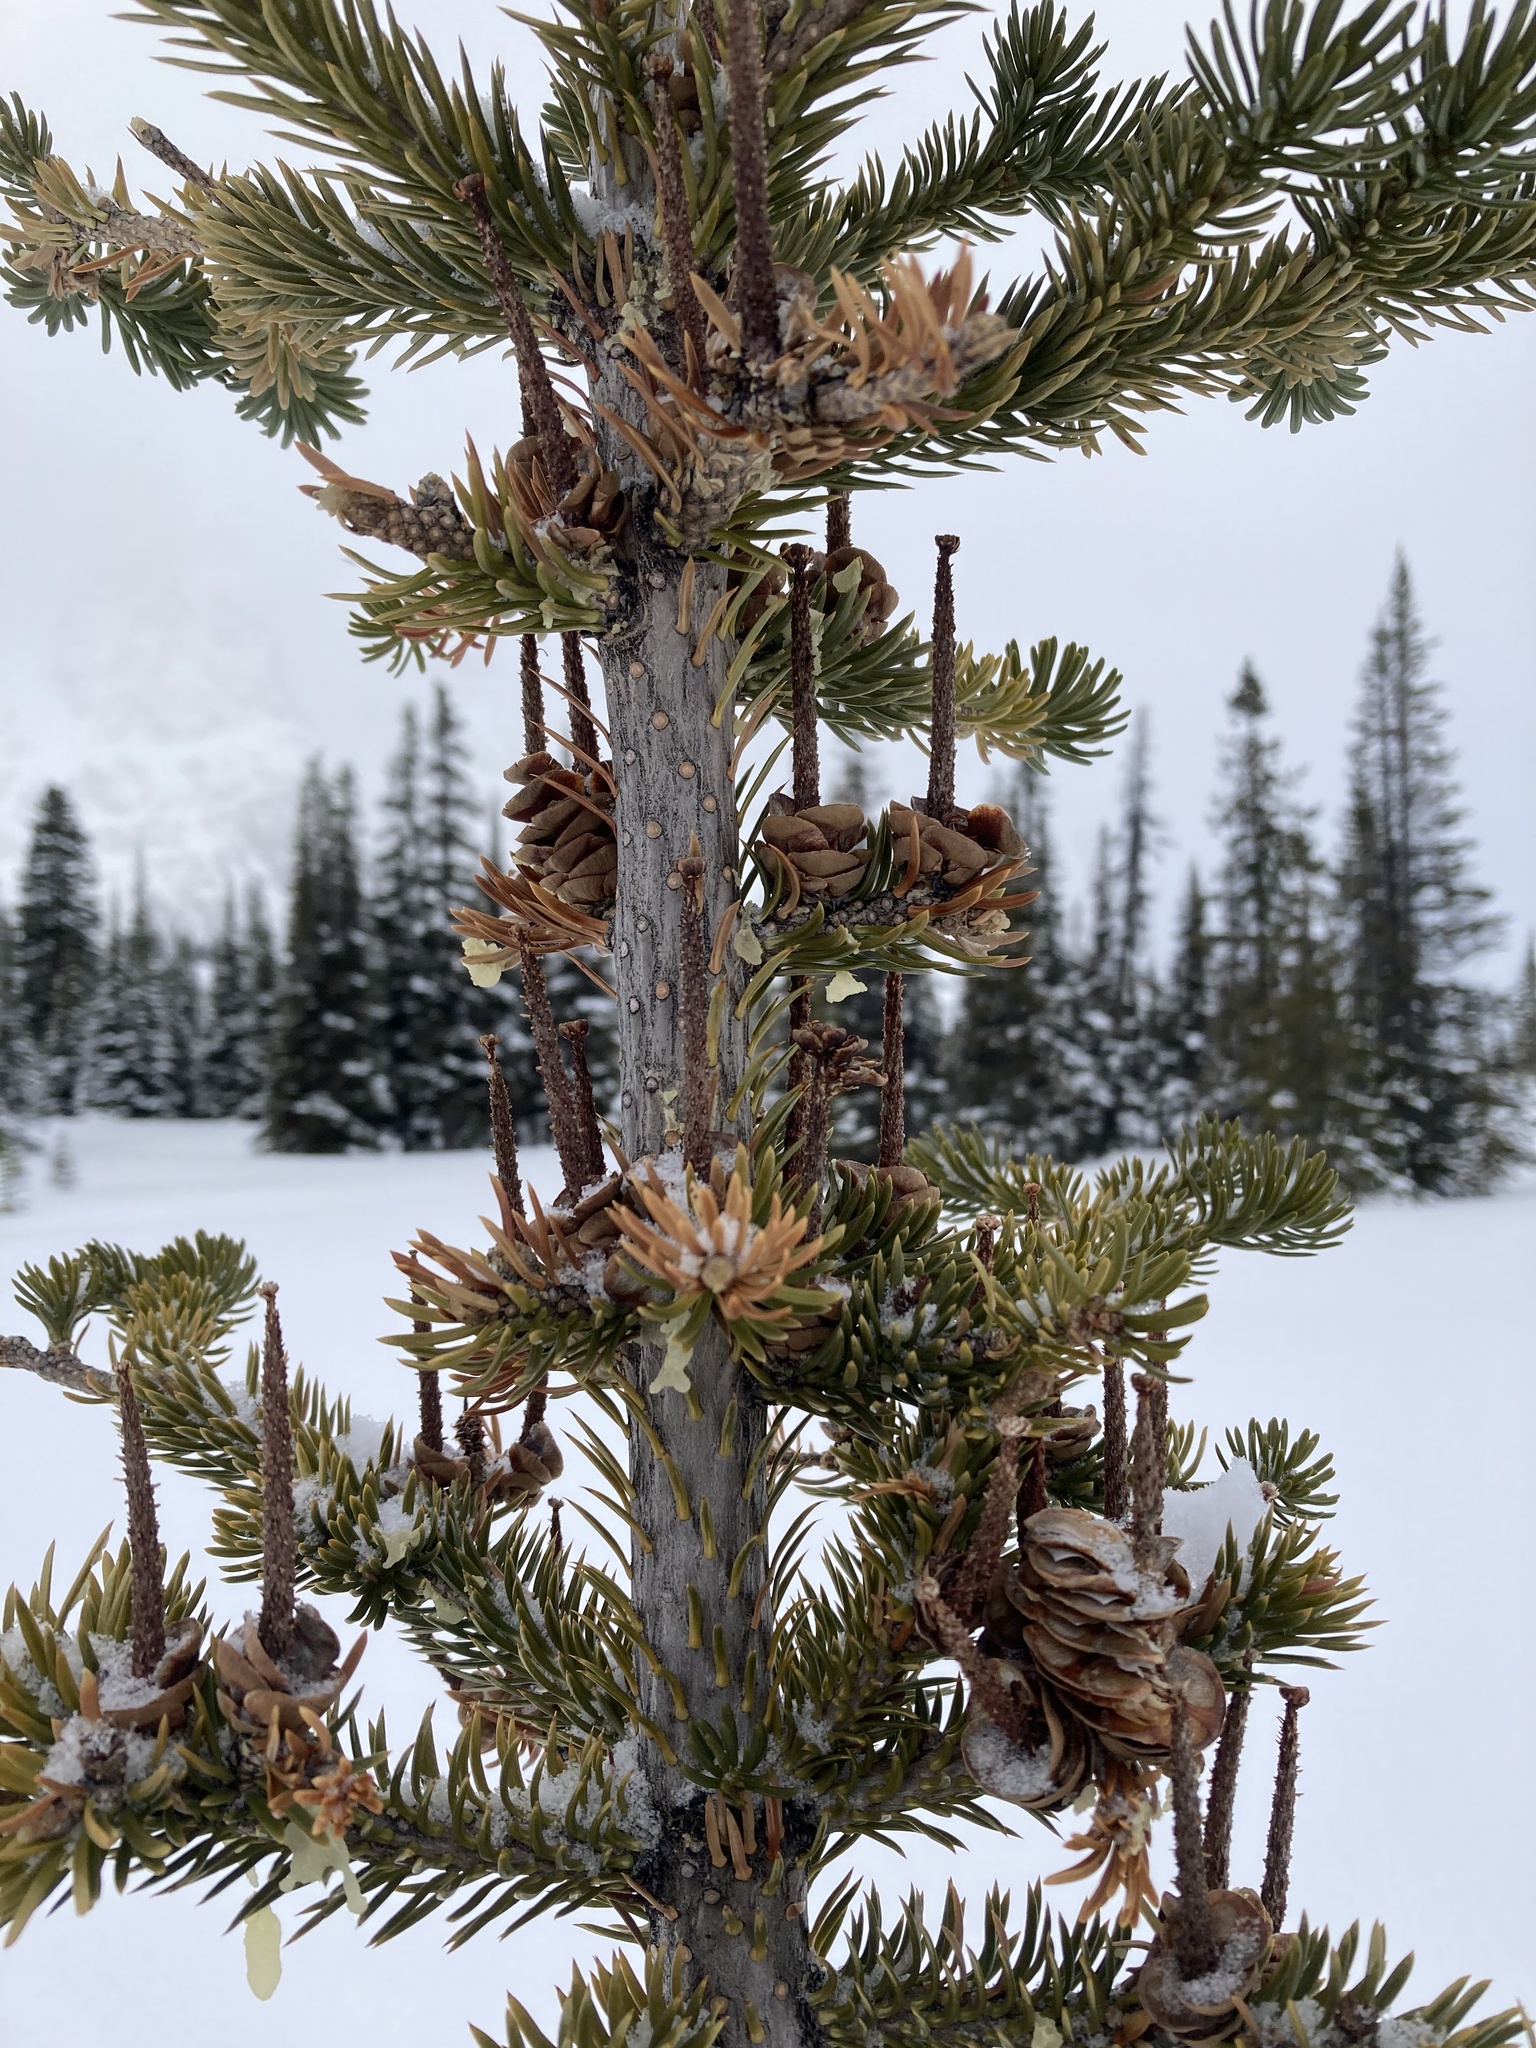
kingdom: Plantae
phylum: Tracheophyta
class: Pinopsida
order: Pinales
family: Pinaceae
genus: Abies
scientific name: Abies lasiocarpa
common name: Subalpine fir
